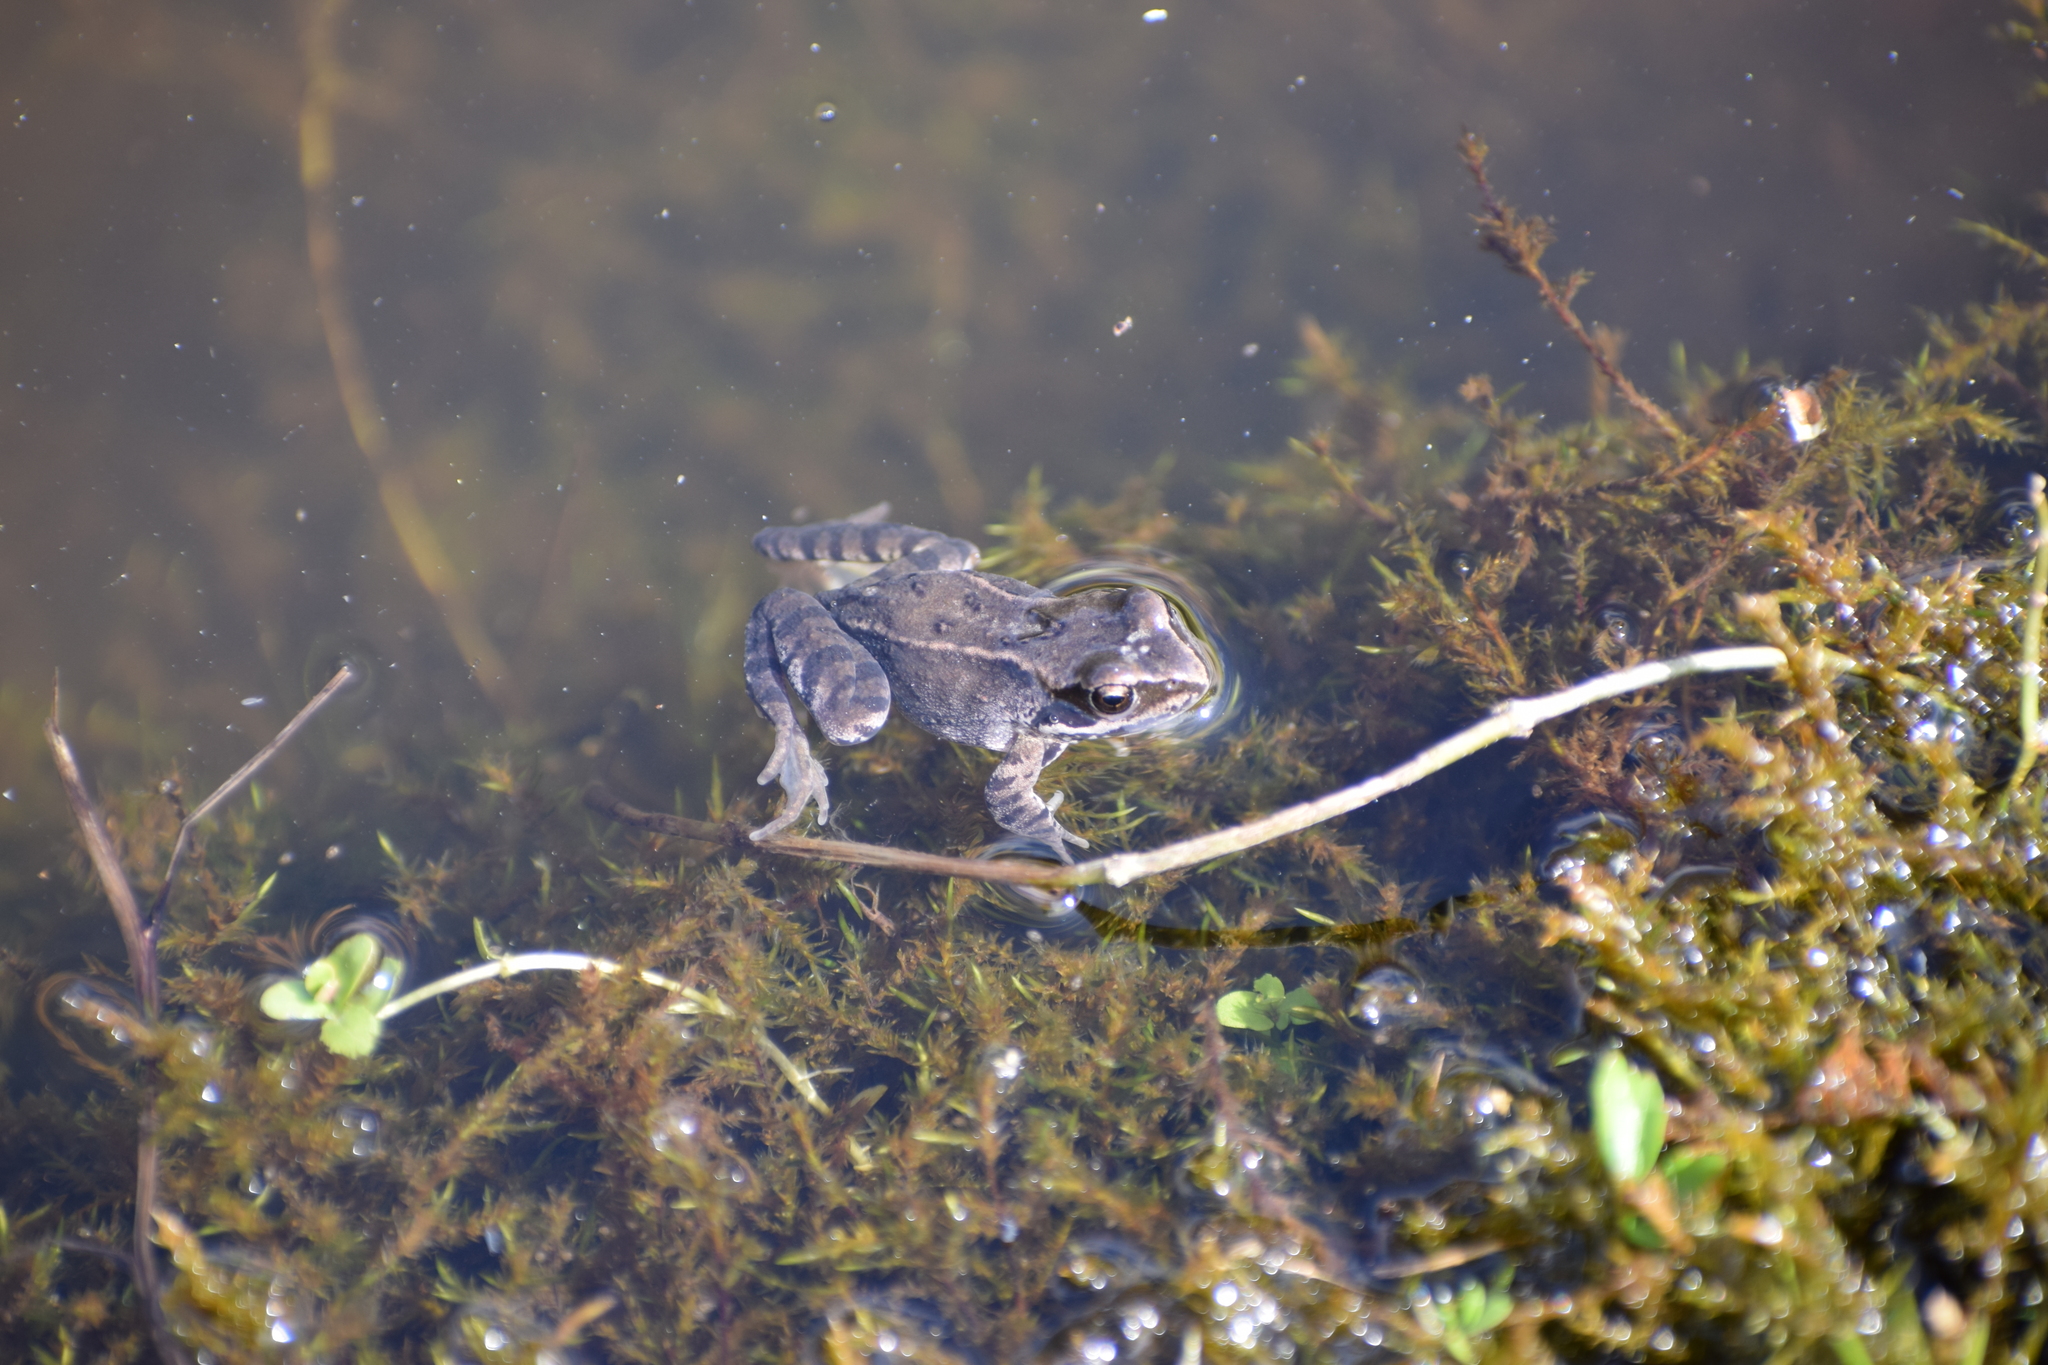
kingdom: Animalia
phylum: Chordata
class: Amphibia
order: Anura
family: Ranidae
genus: Rana
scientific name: Rana temporaria
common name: Common frog
